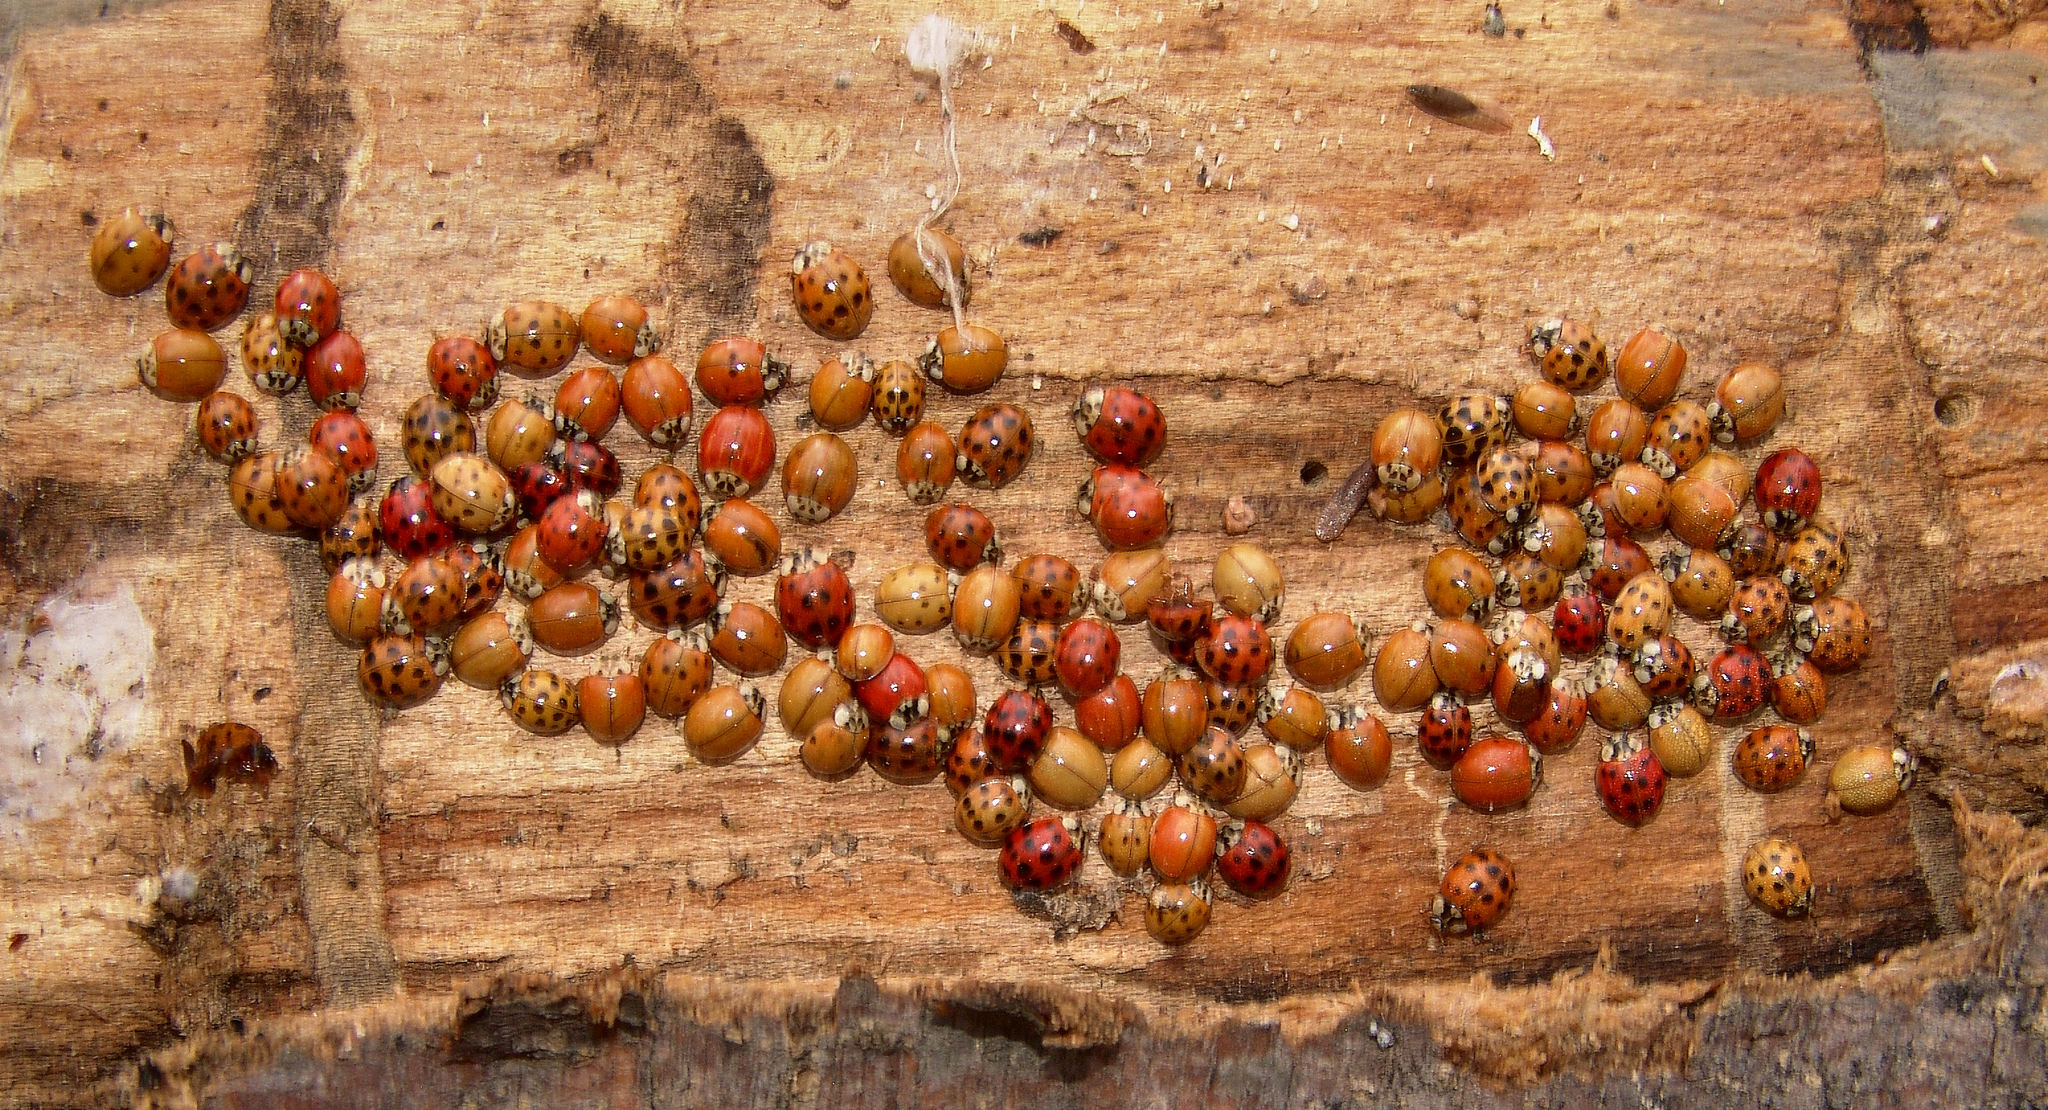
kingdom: Animalia
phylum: Arthropoda
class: Insecta
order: Coleoptera
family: Coccinellidae
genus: Harmonia
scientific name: Harmonia axyridis
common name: Harlequin ladybird
